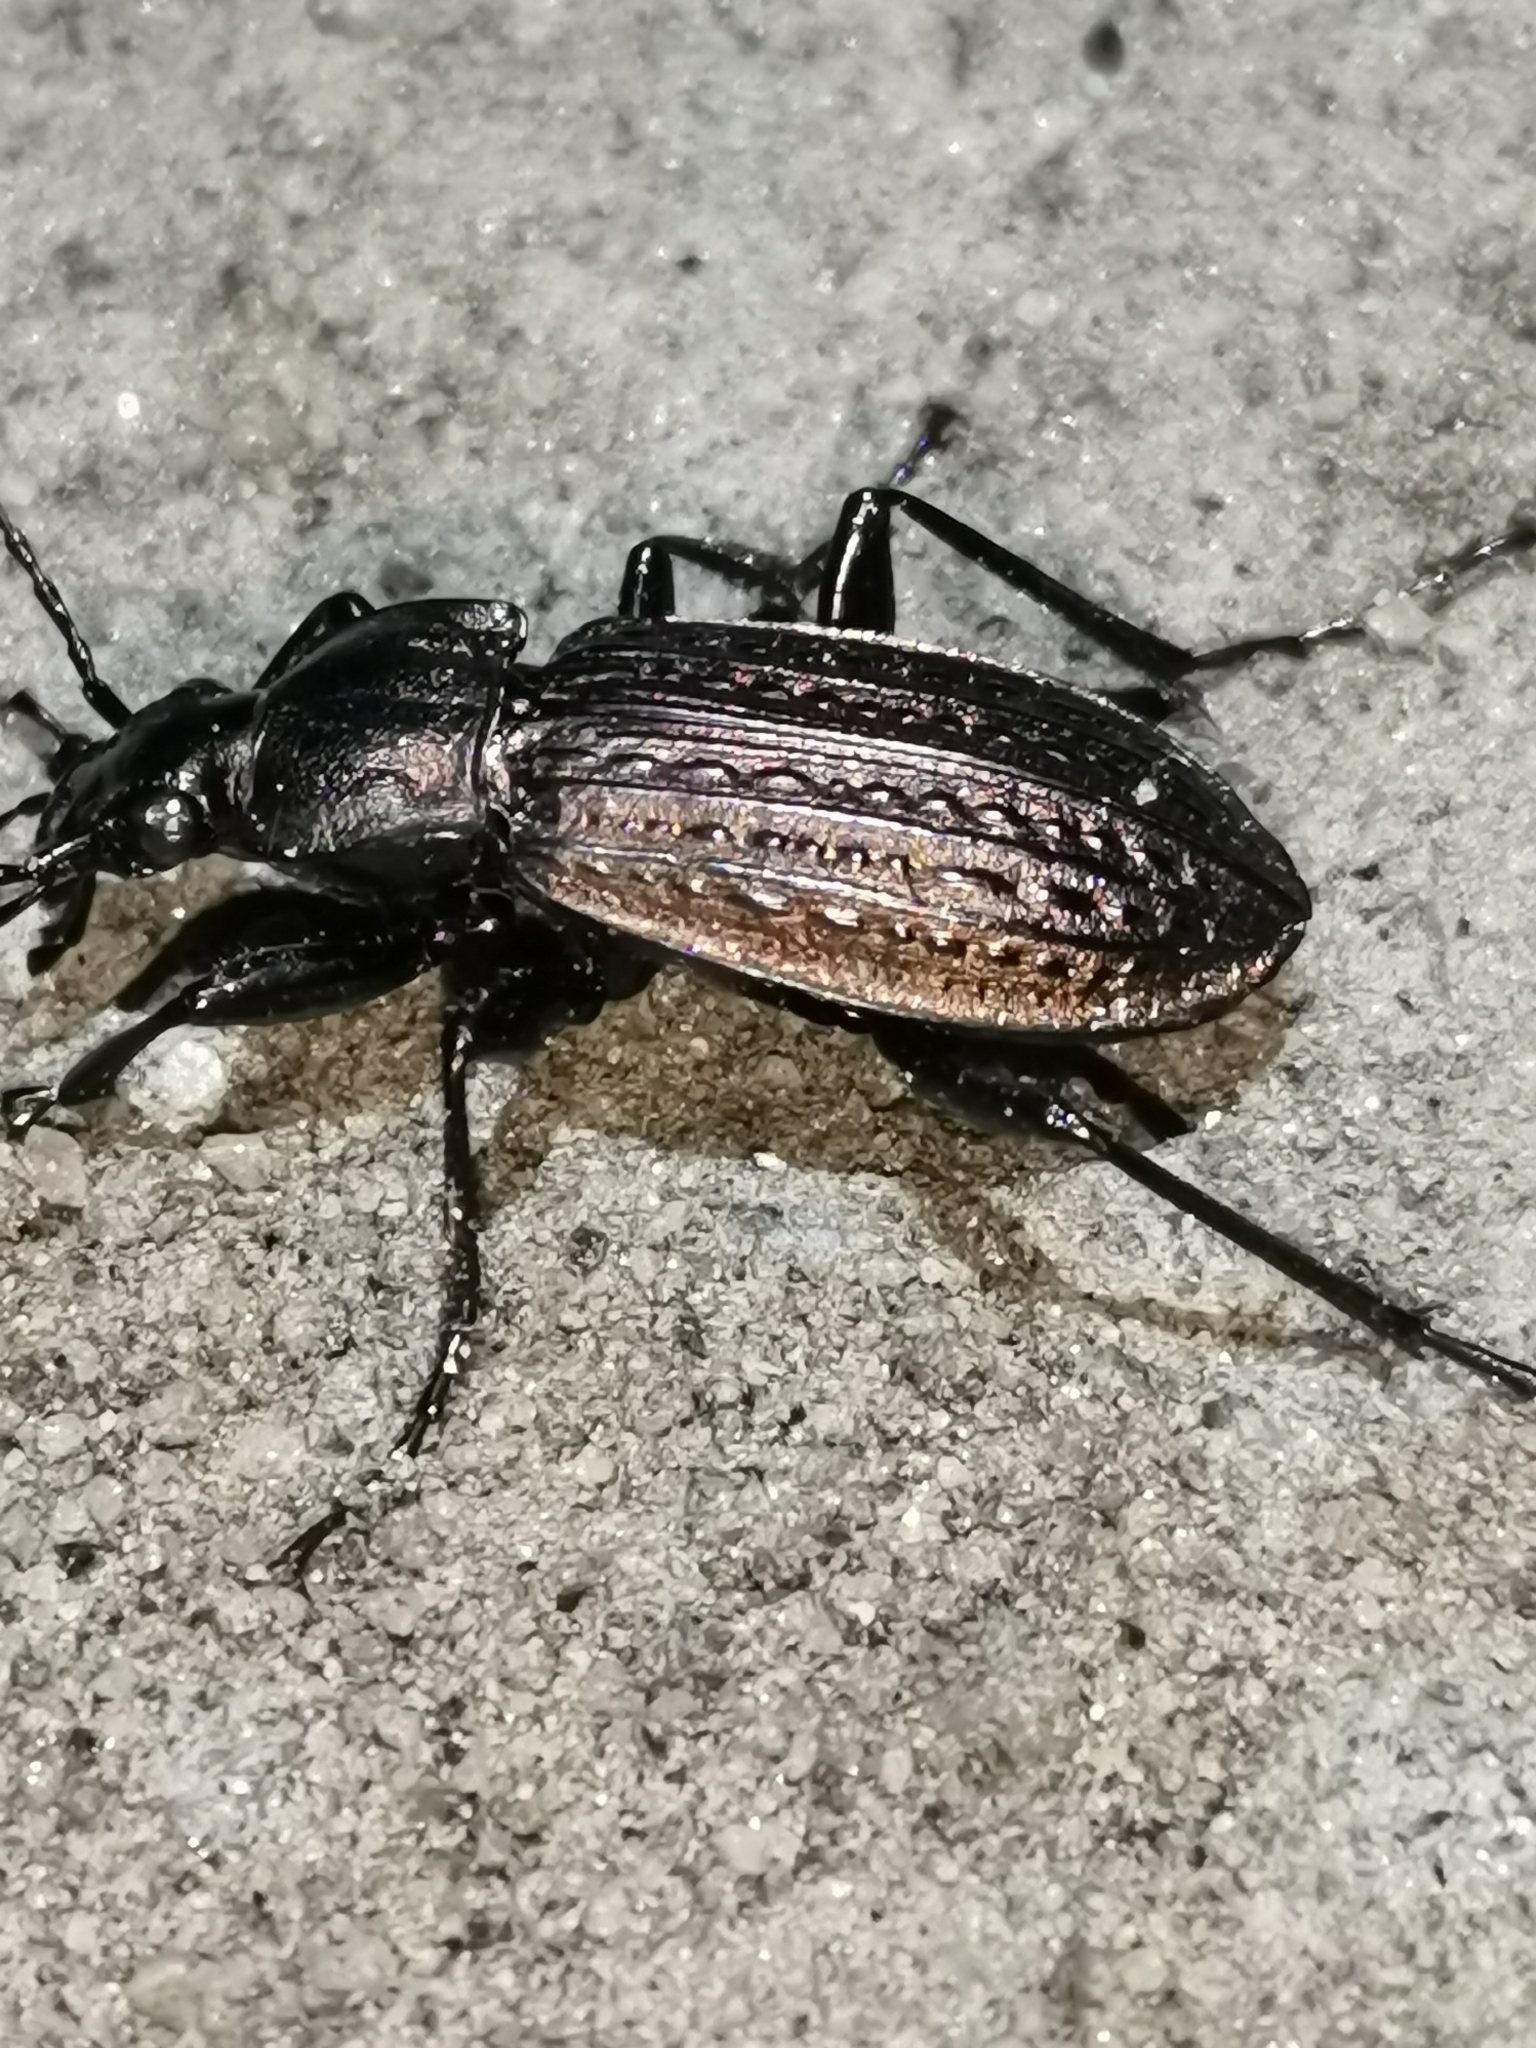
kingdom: Animalia
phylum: Arthropoda
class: Insecta
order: Coleoptera
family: Carabidae
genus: Carabus
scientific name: Carabus granulatus
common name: Granulate ground beetle
